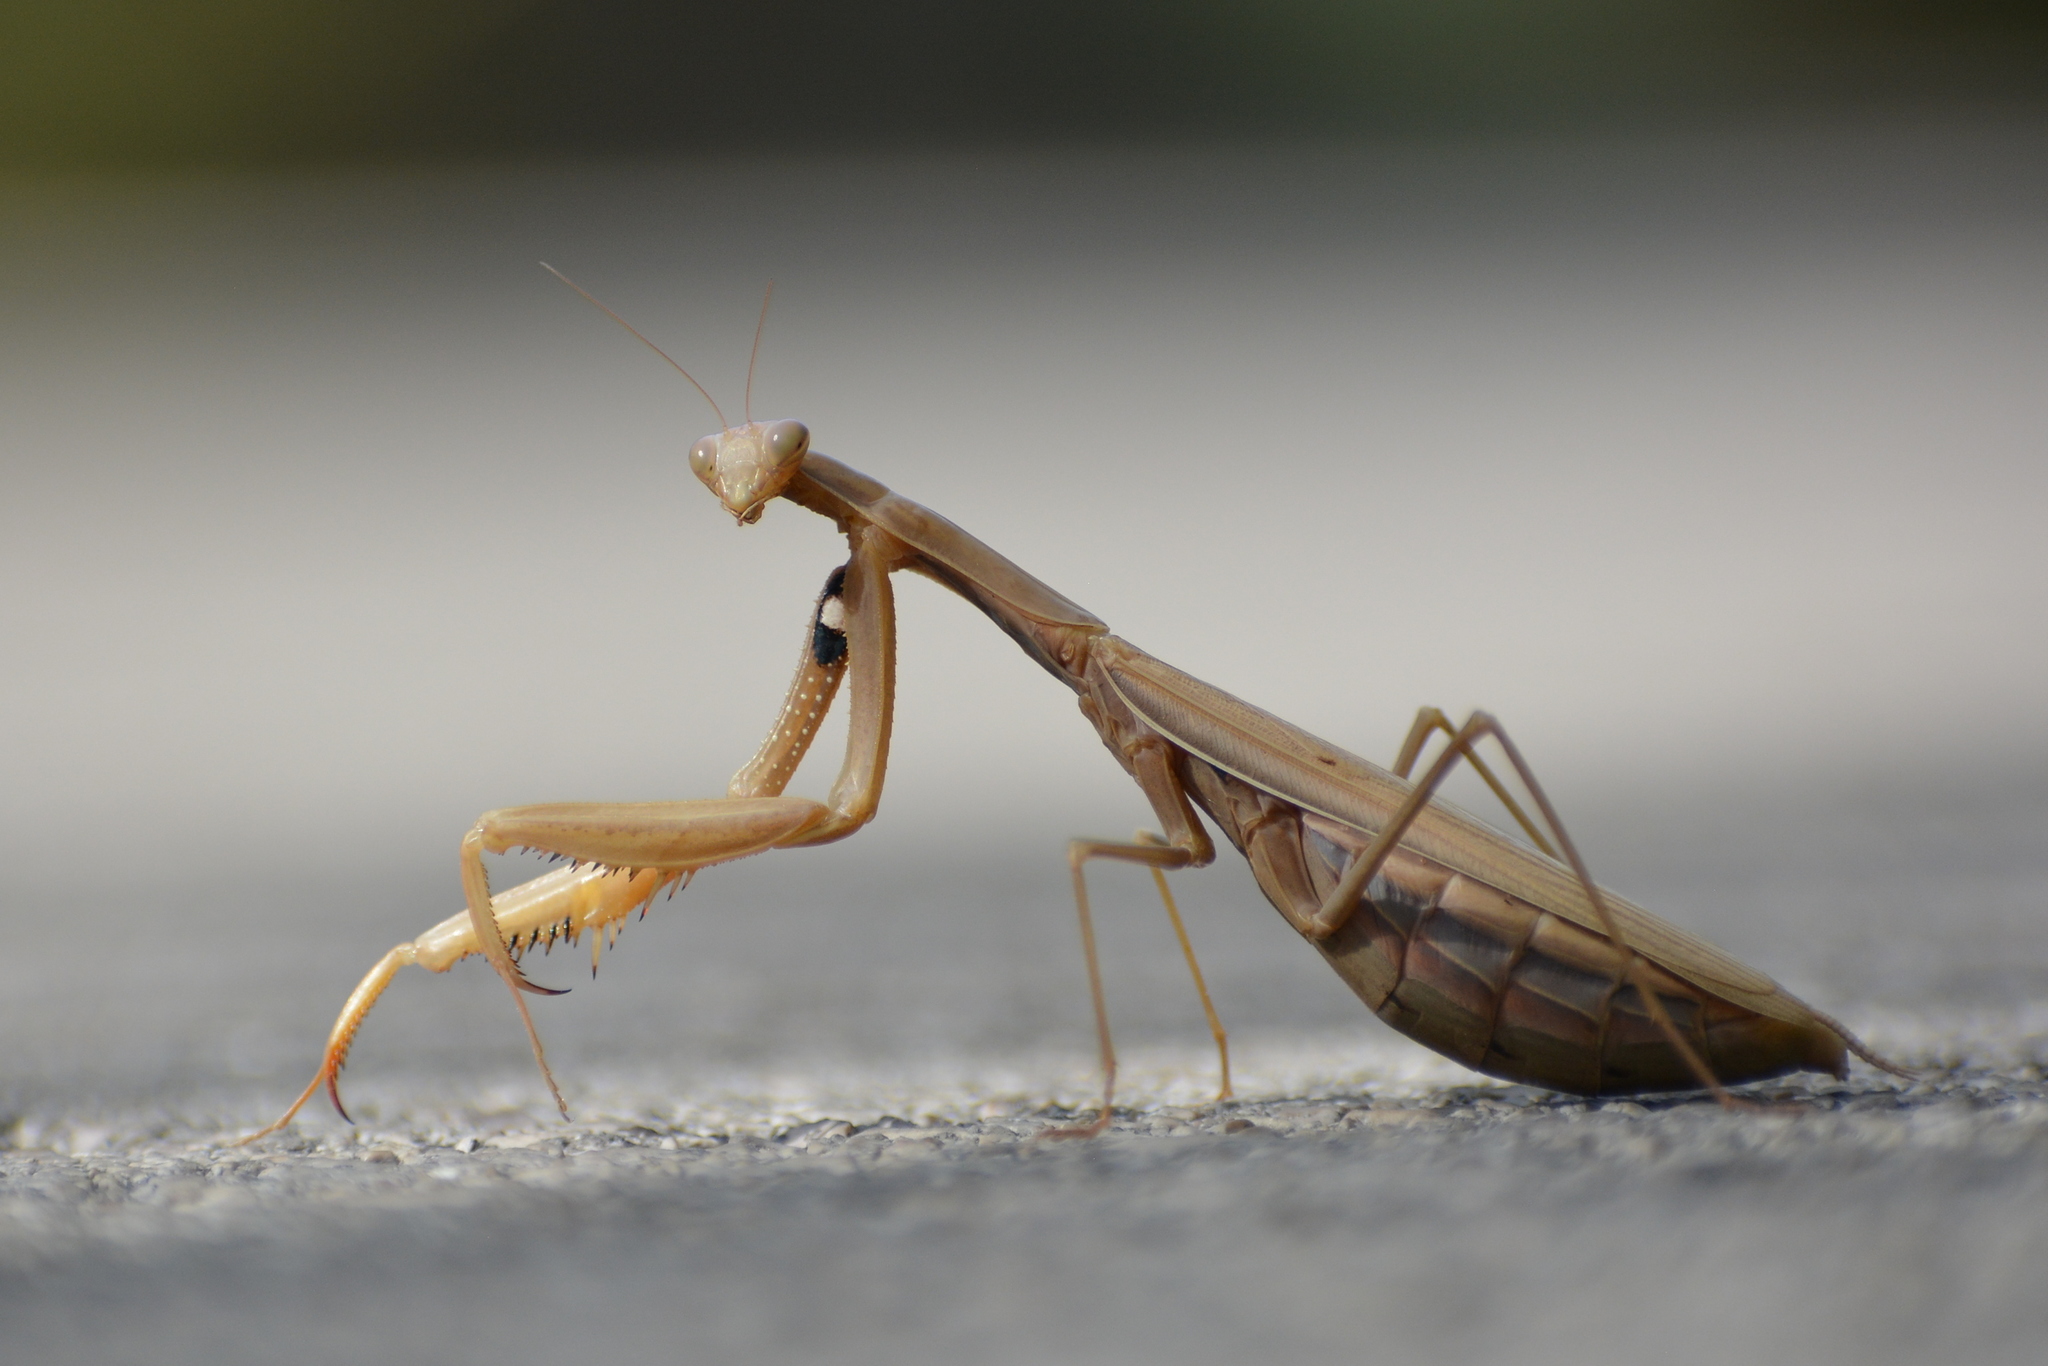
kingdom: Animalia
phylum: Arthropoda
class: Insecta
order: Mantodea
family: Mantidae
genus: Mantis
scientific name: Mantis religiosa
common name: Praying mantis
